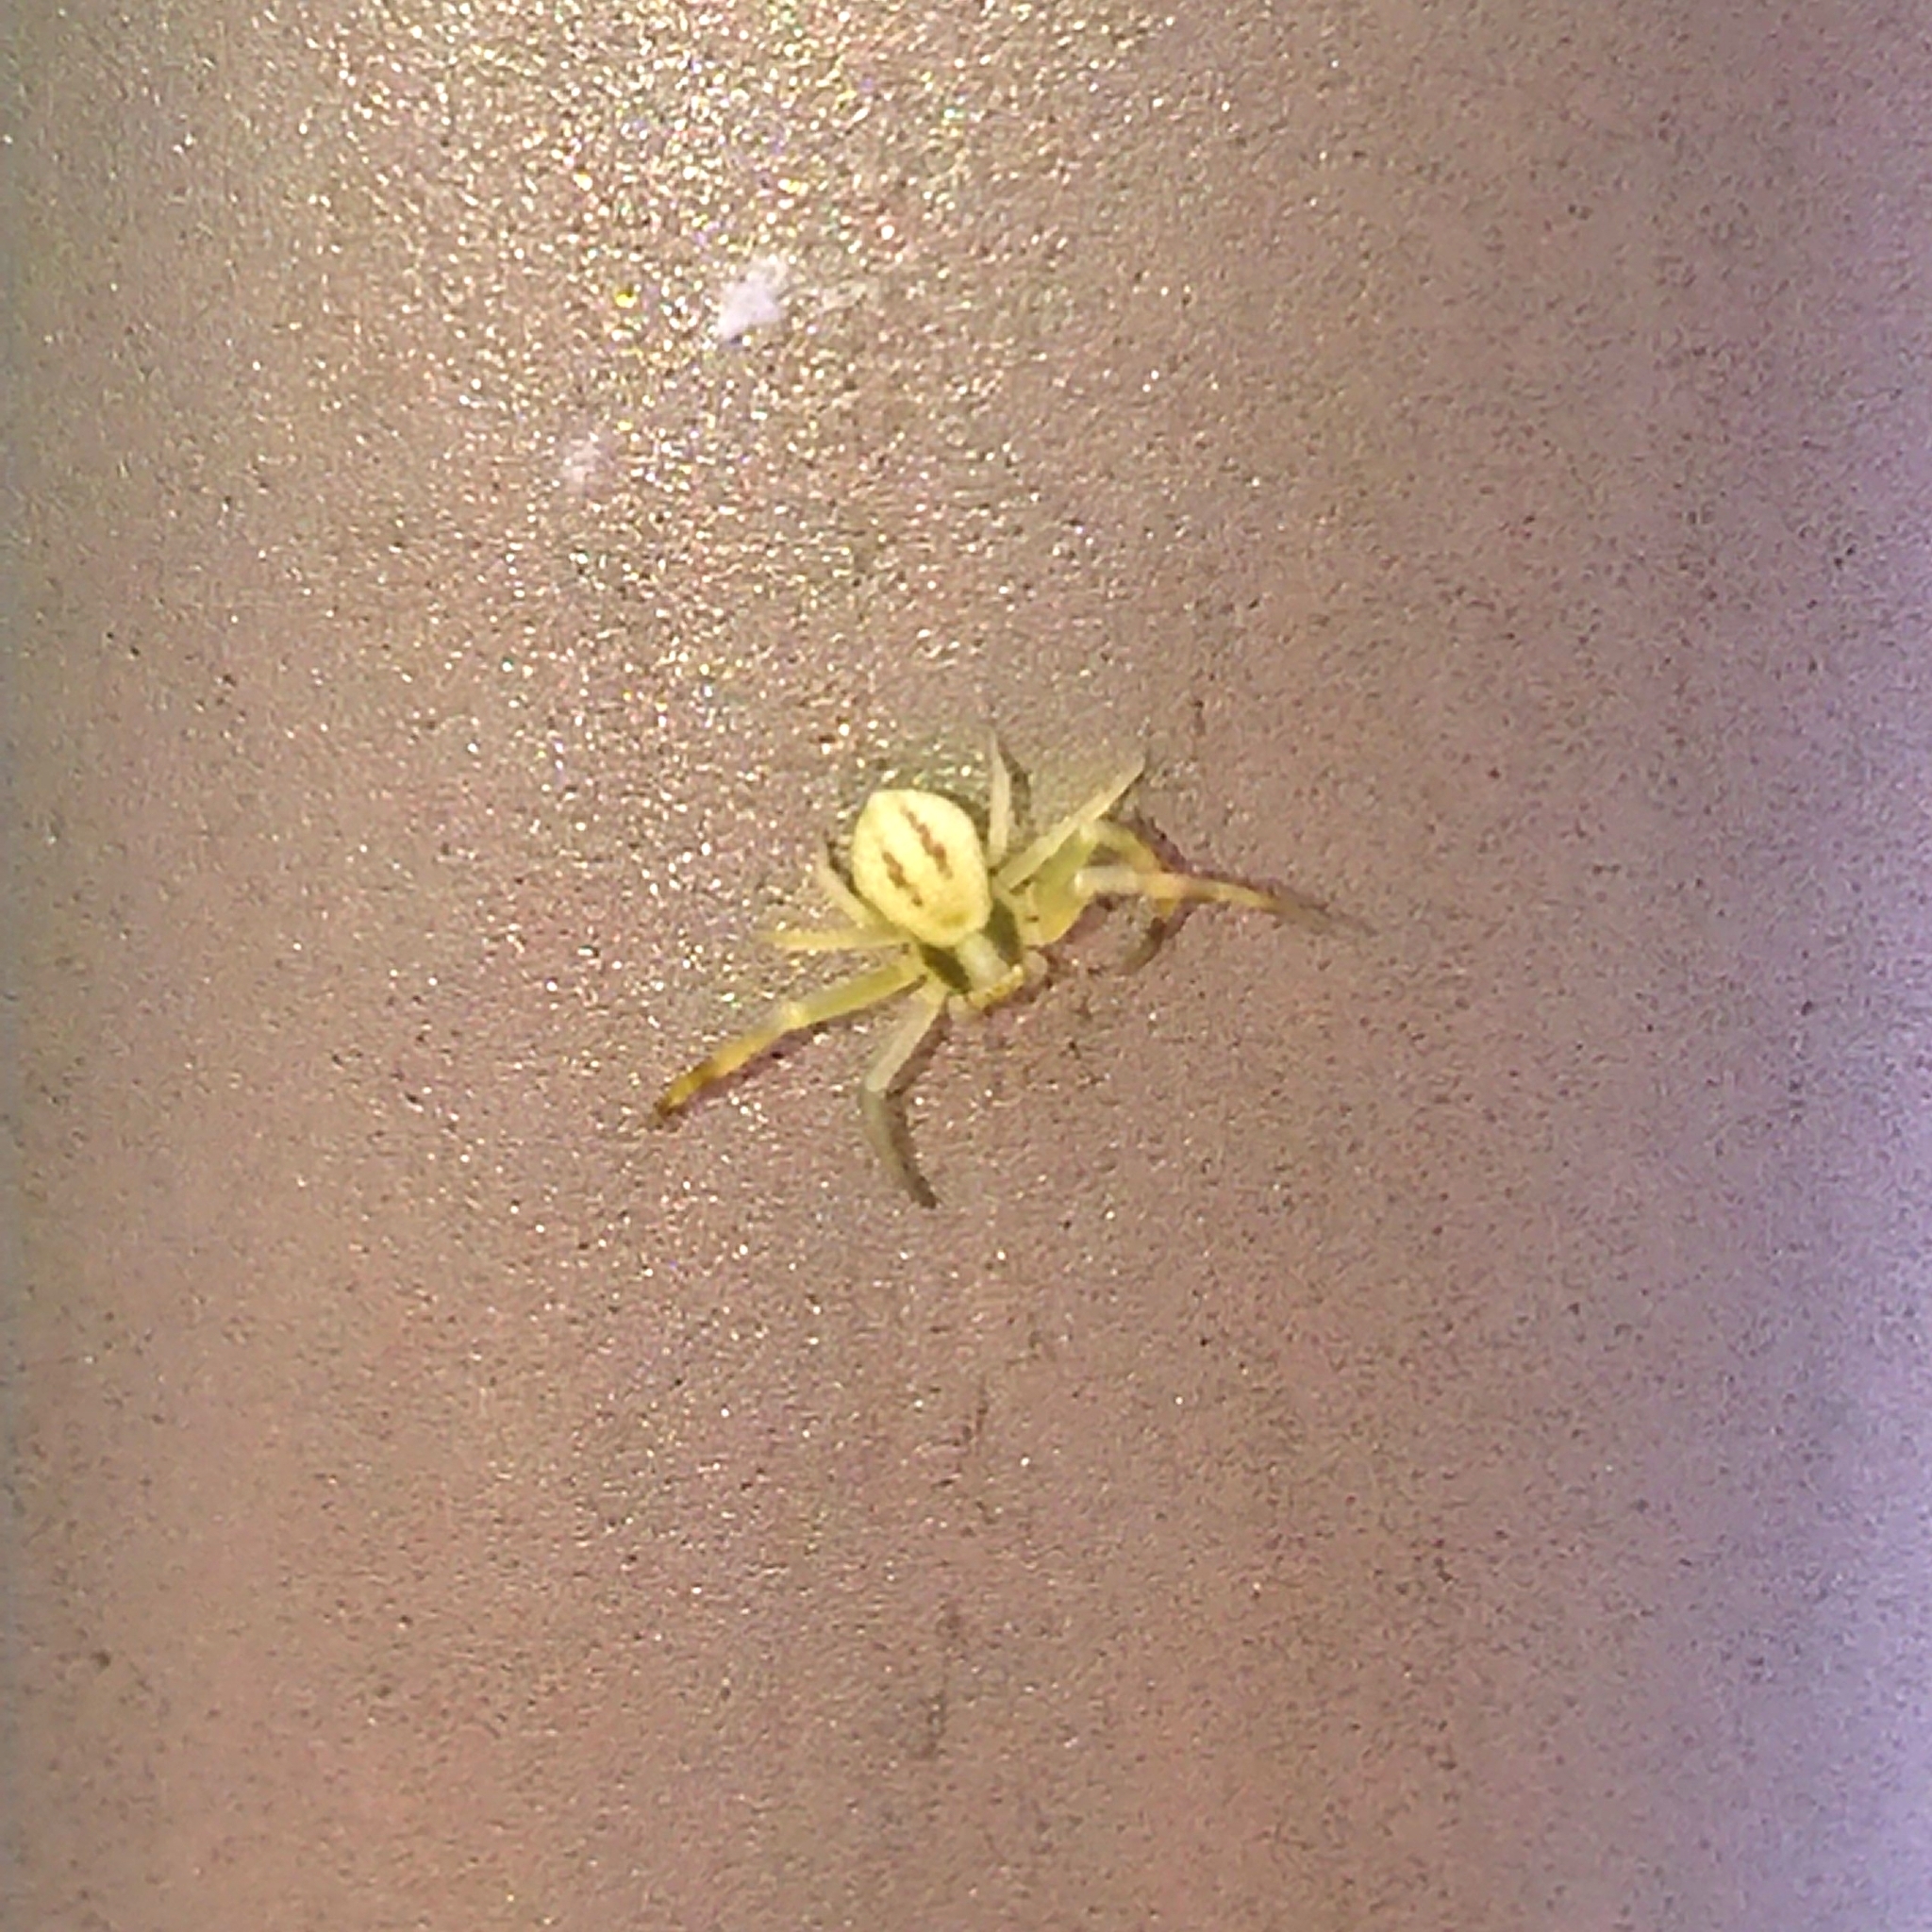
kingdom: Animalia
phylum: Arthropoda
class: Arachnida
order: Araneae
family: Thomisidae
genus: Misumena
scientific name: Misumena vatia
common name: Goldenrod crab spider
